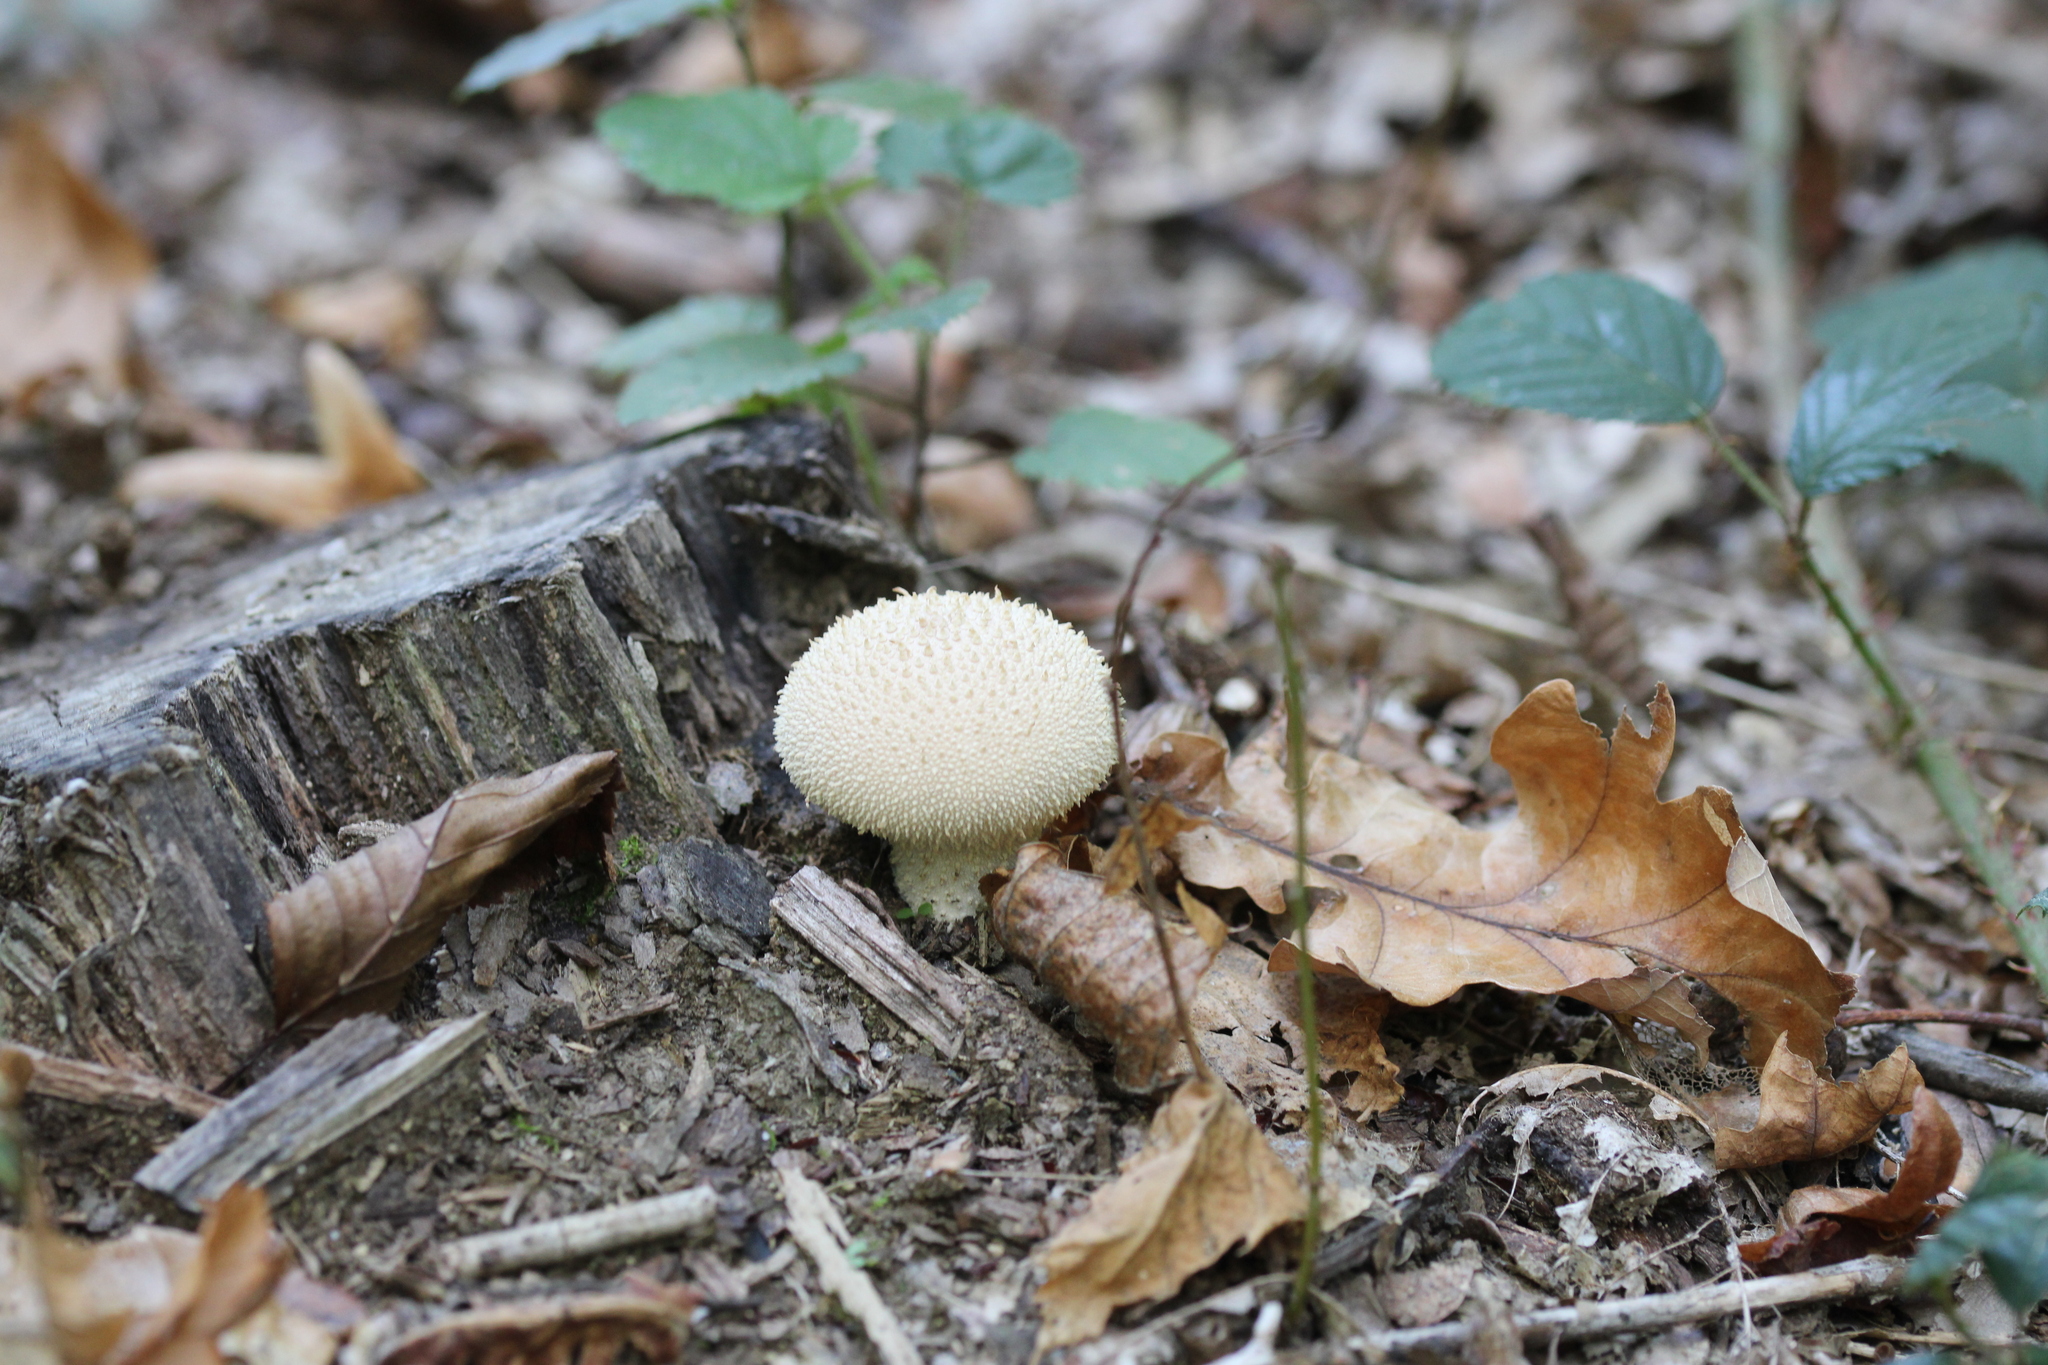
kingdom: Fungi
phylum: Basidiomycota
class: Agaricomycetes
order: Agaricales
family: Lycoperdaceae
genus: Lycoperdon
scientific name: Lycoperdon perlatum
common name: Common puffball
